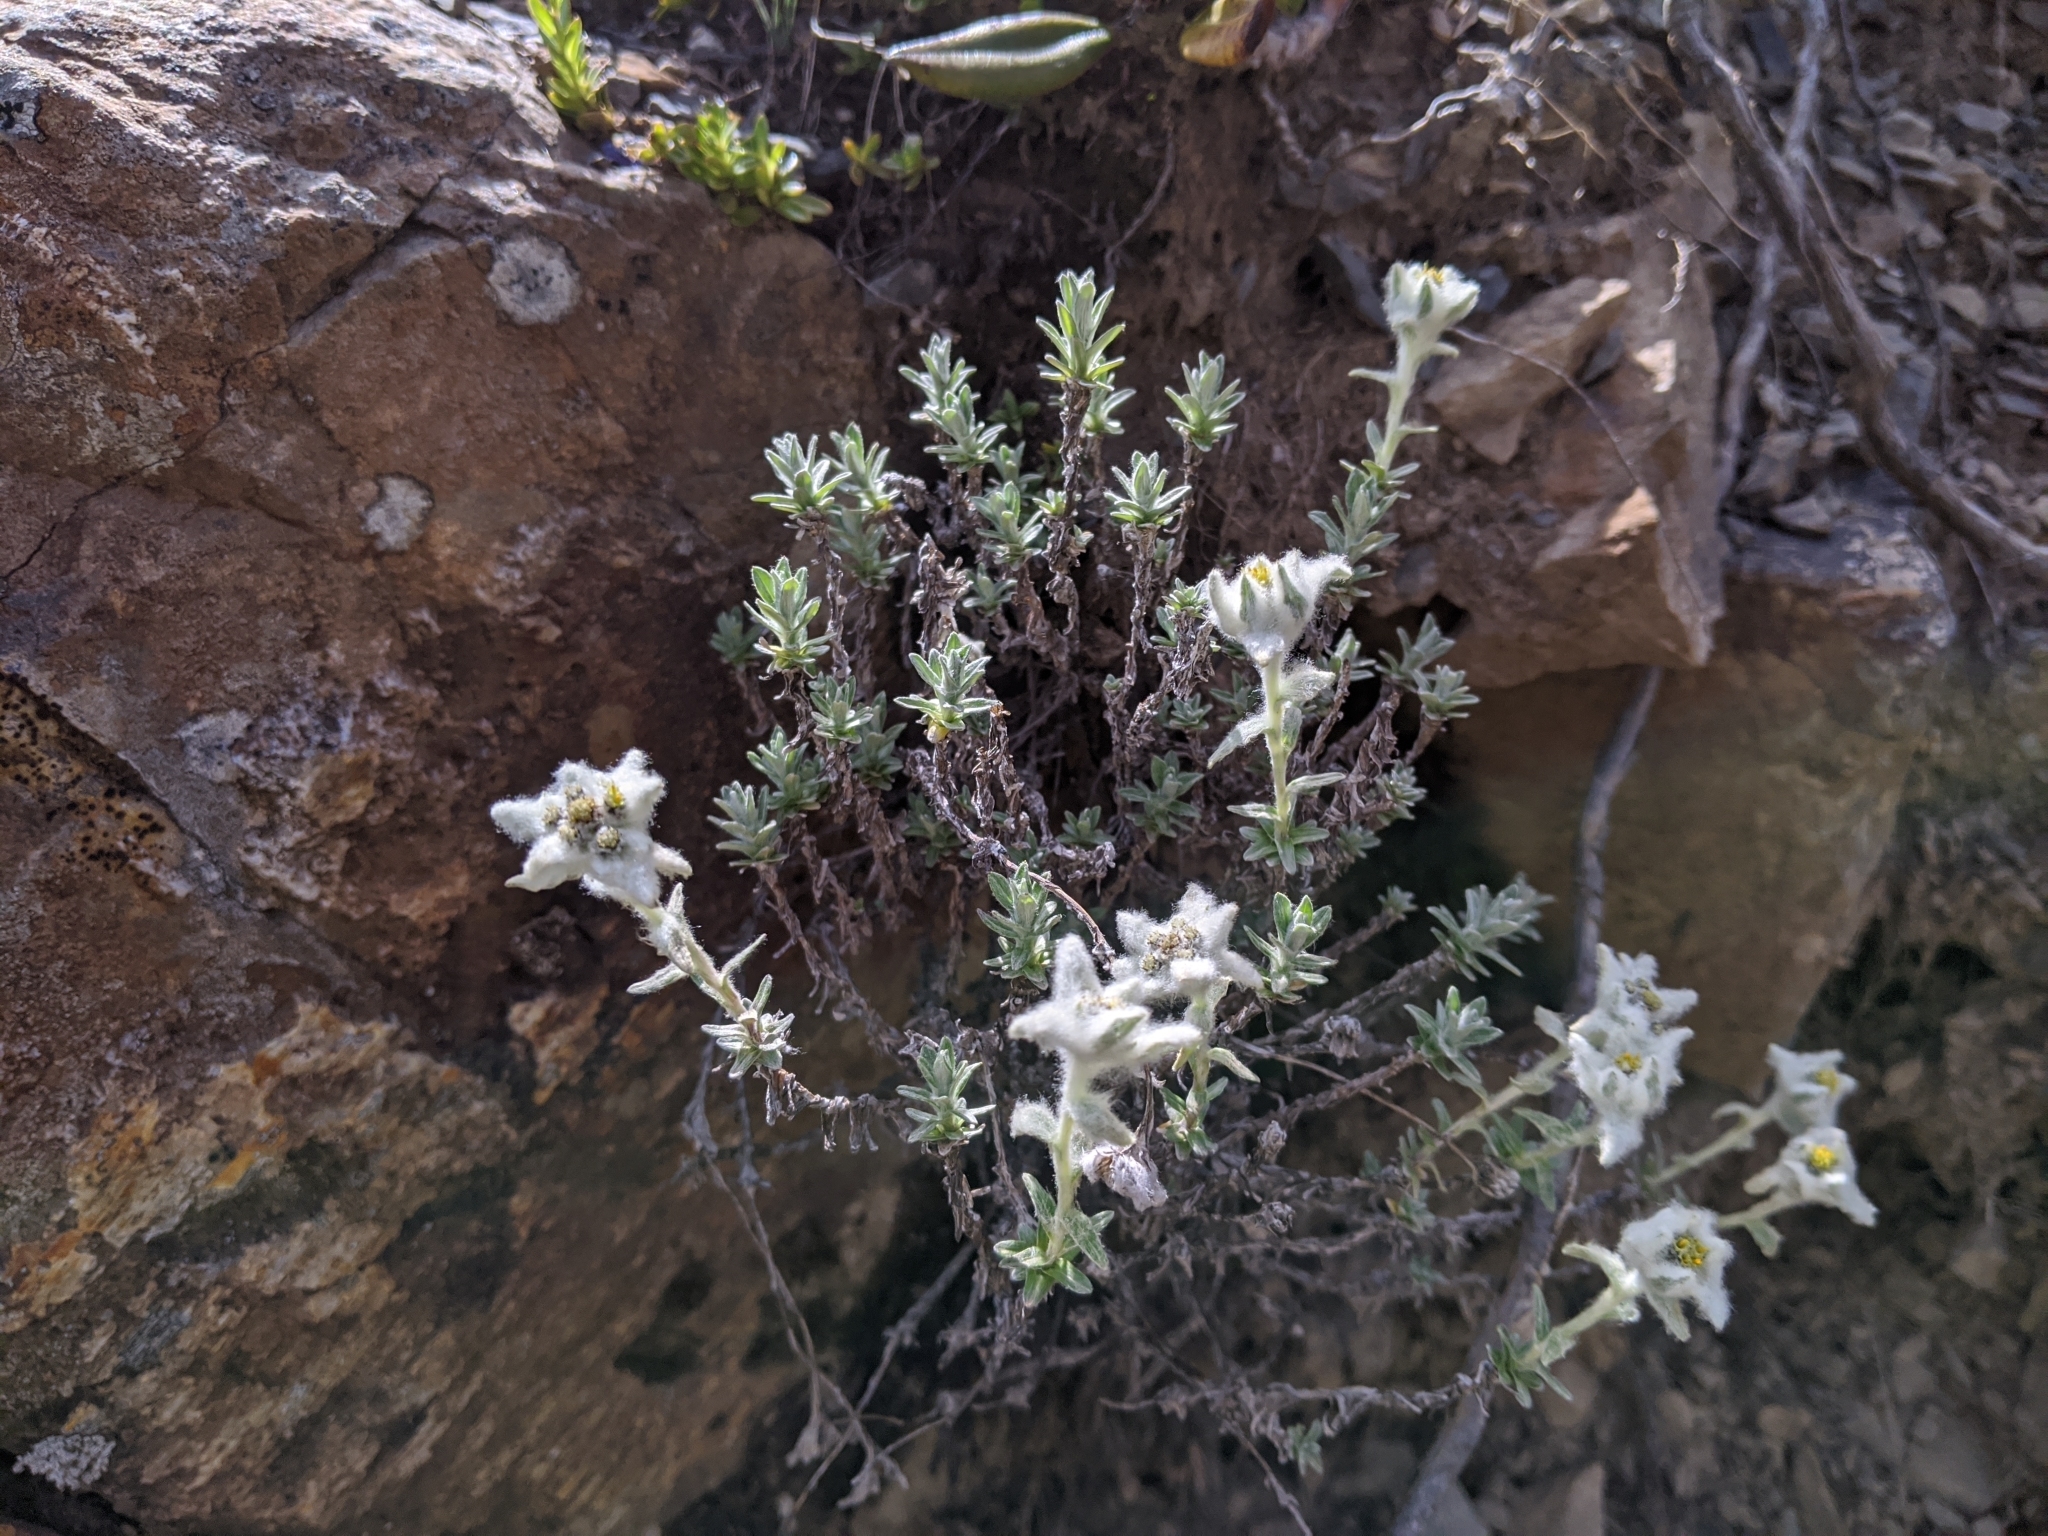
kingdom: Plantae
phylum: Tracheophyta
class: Magnoliopsida
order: Asterales
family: Asteraceae
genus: Leontopodium
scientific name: Leontopodium microphyllum
